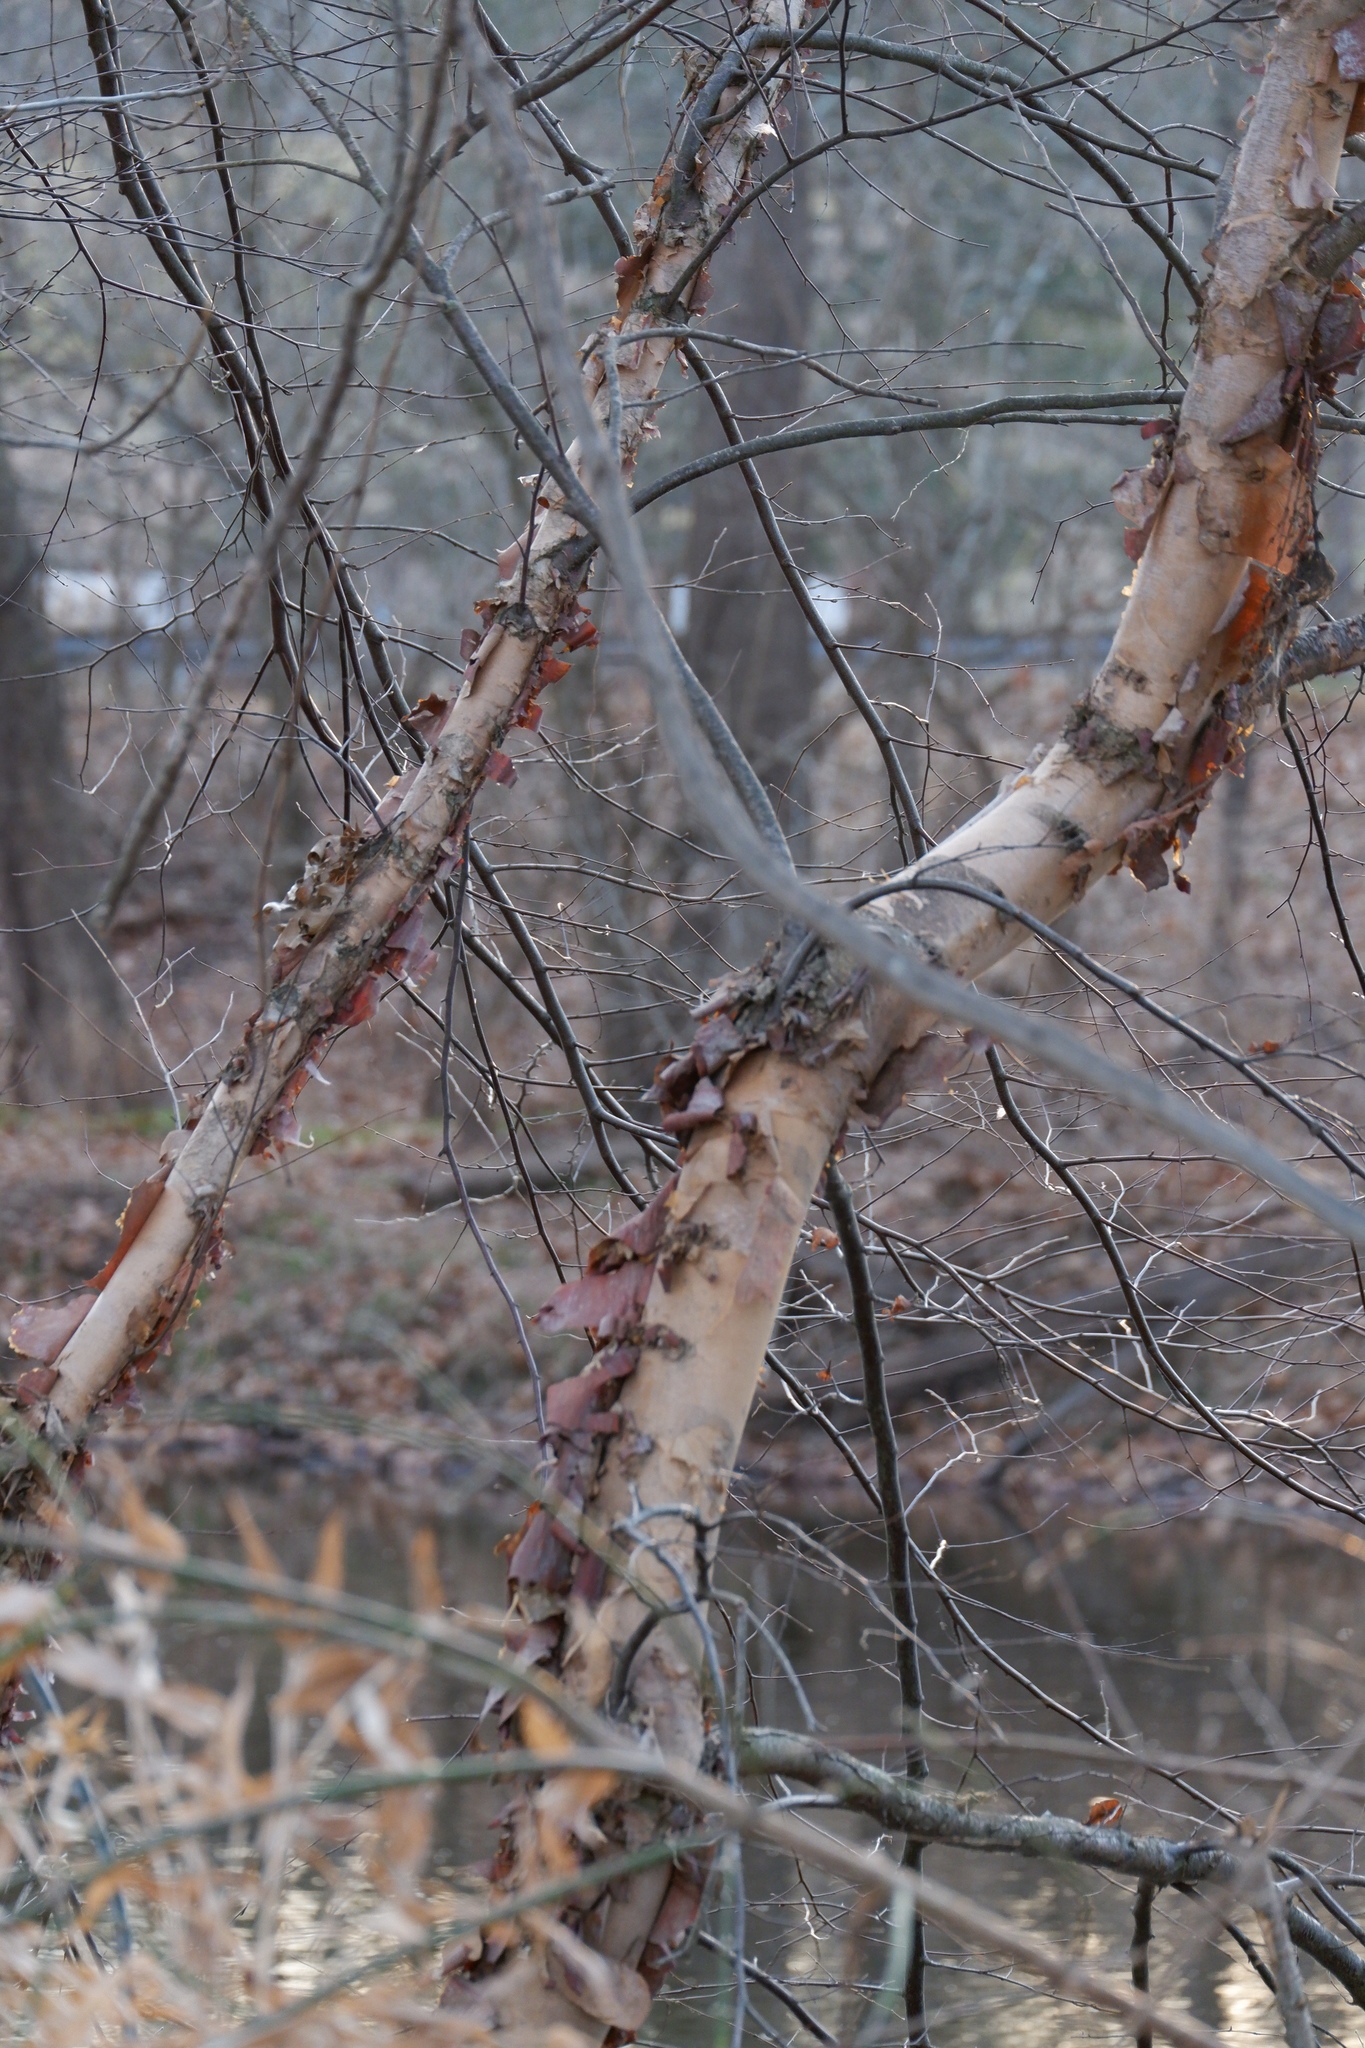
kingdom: Plantae
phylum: Tracheophyta
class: Magnoliopsida
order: Fagales
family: Betulaceae
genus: Betula
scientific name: Betula nigra
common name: Black birch
